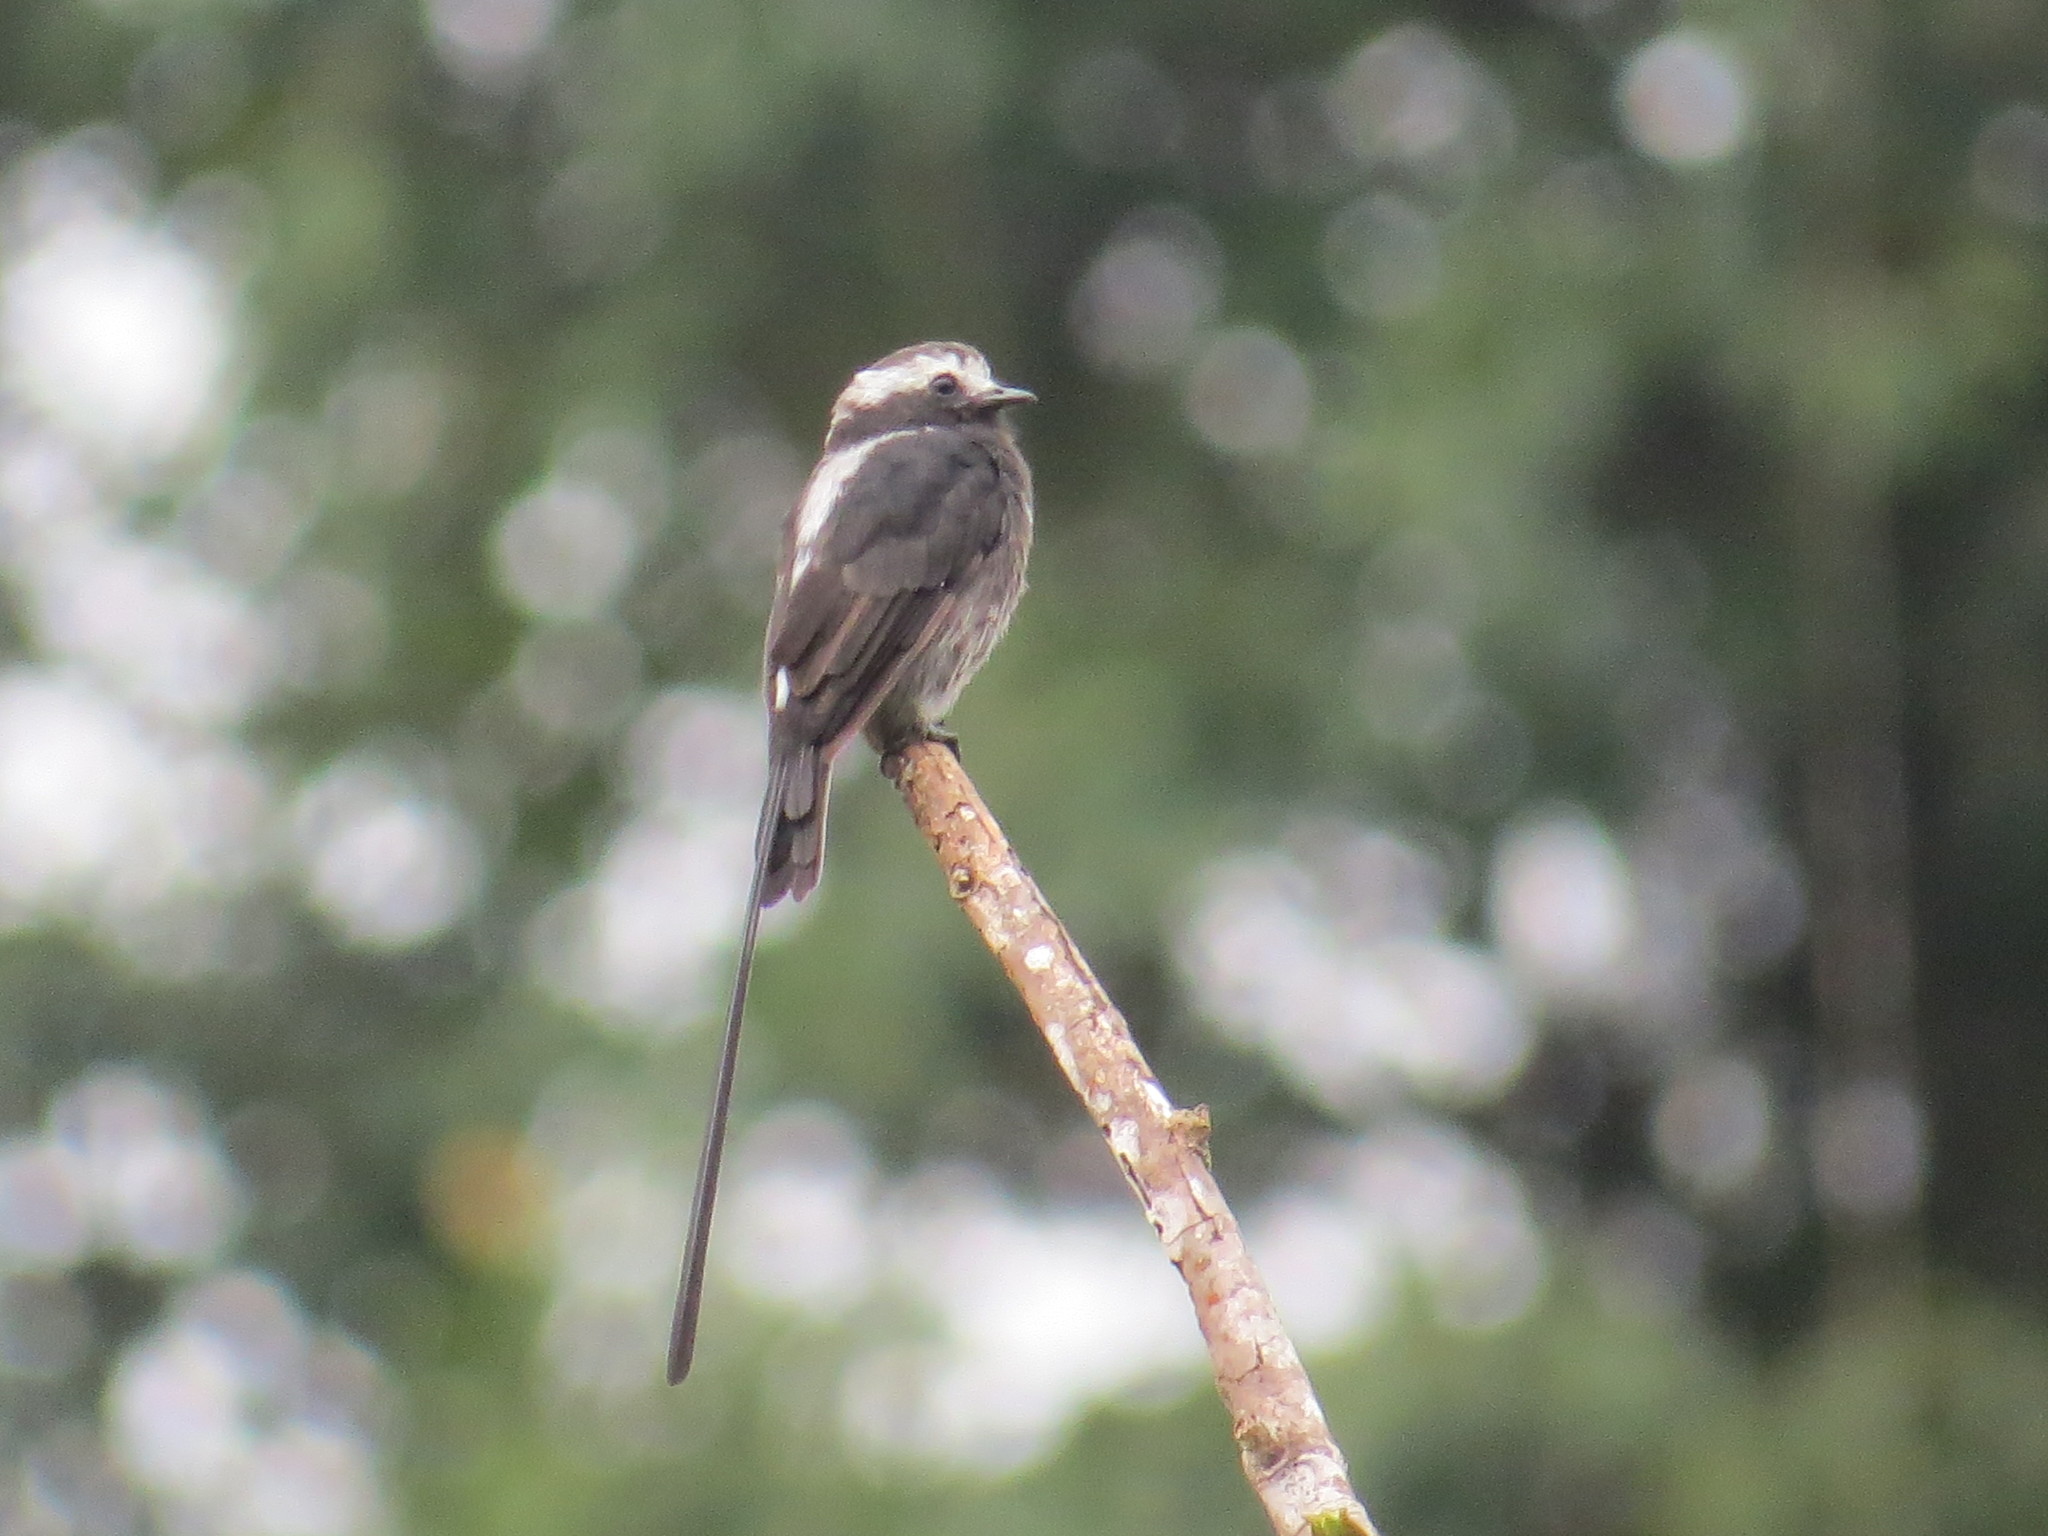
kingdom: Animalia
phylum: Chordata
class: Aves
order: Passeriformes
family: Tyrannidae
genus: Colonia
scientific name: Colonia colonus
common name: Long-tailed tyrant
